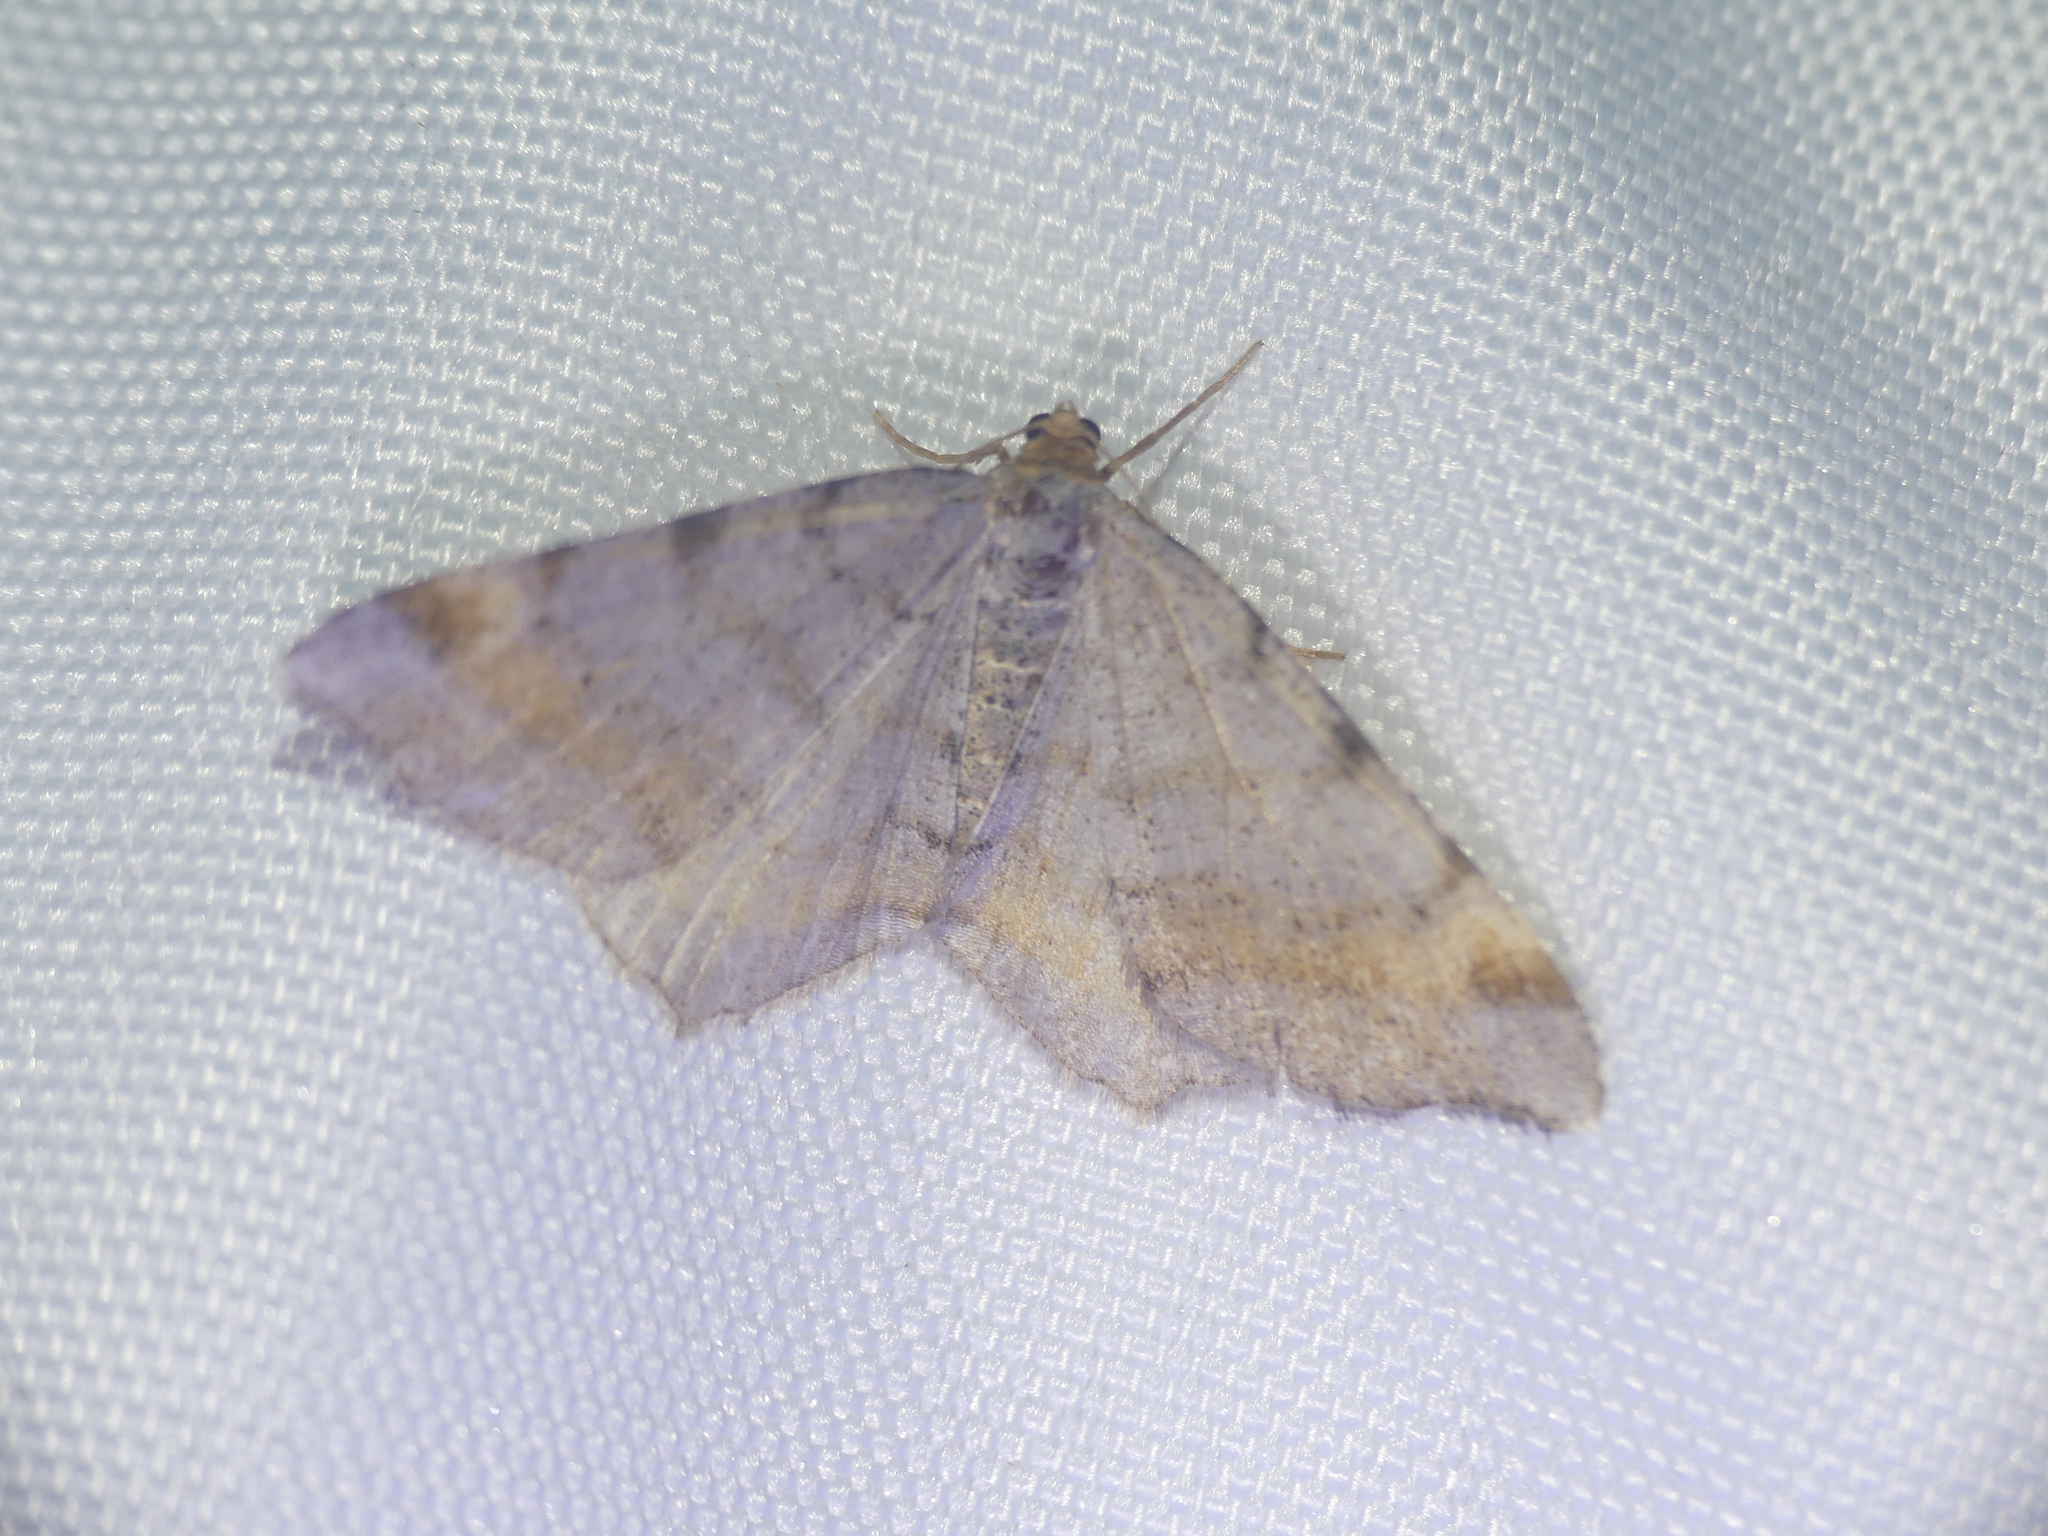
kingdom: Animalia
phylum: Arthropoda
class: Insecta
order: Lepidoptera
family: Geometridae
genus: Macaria
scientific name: Macaria liturata
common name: Tawny-barred angle
